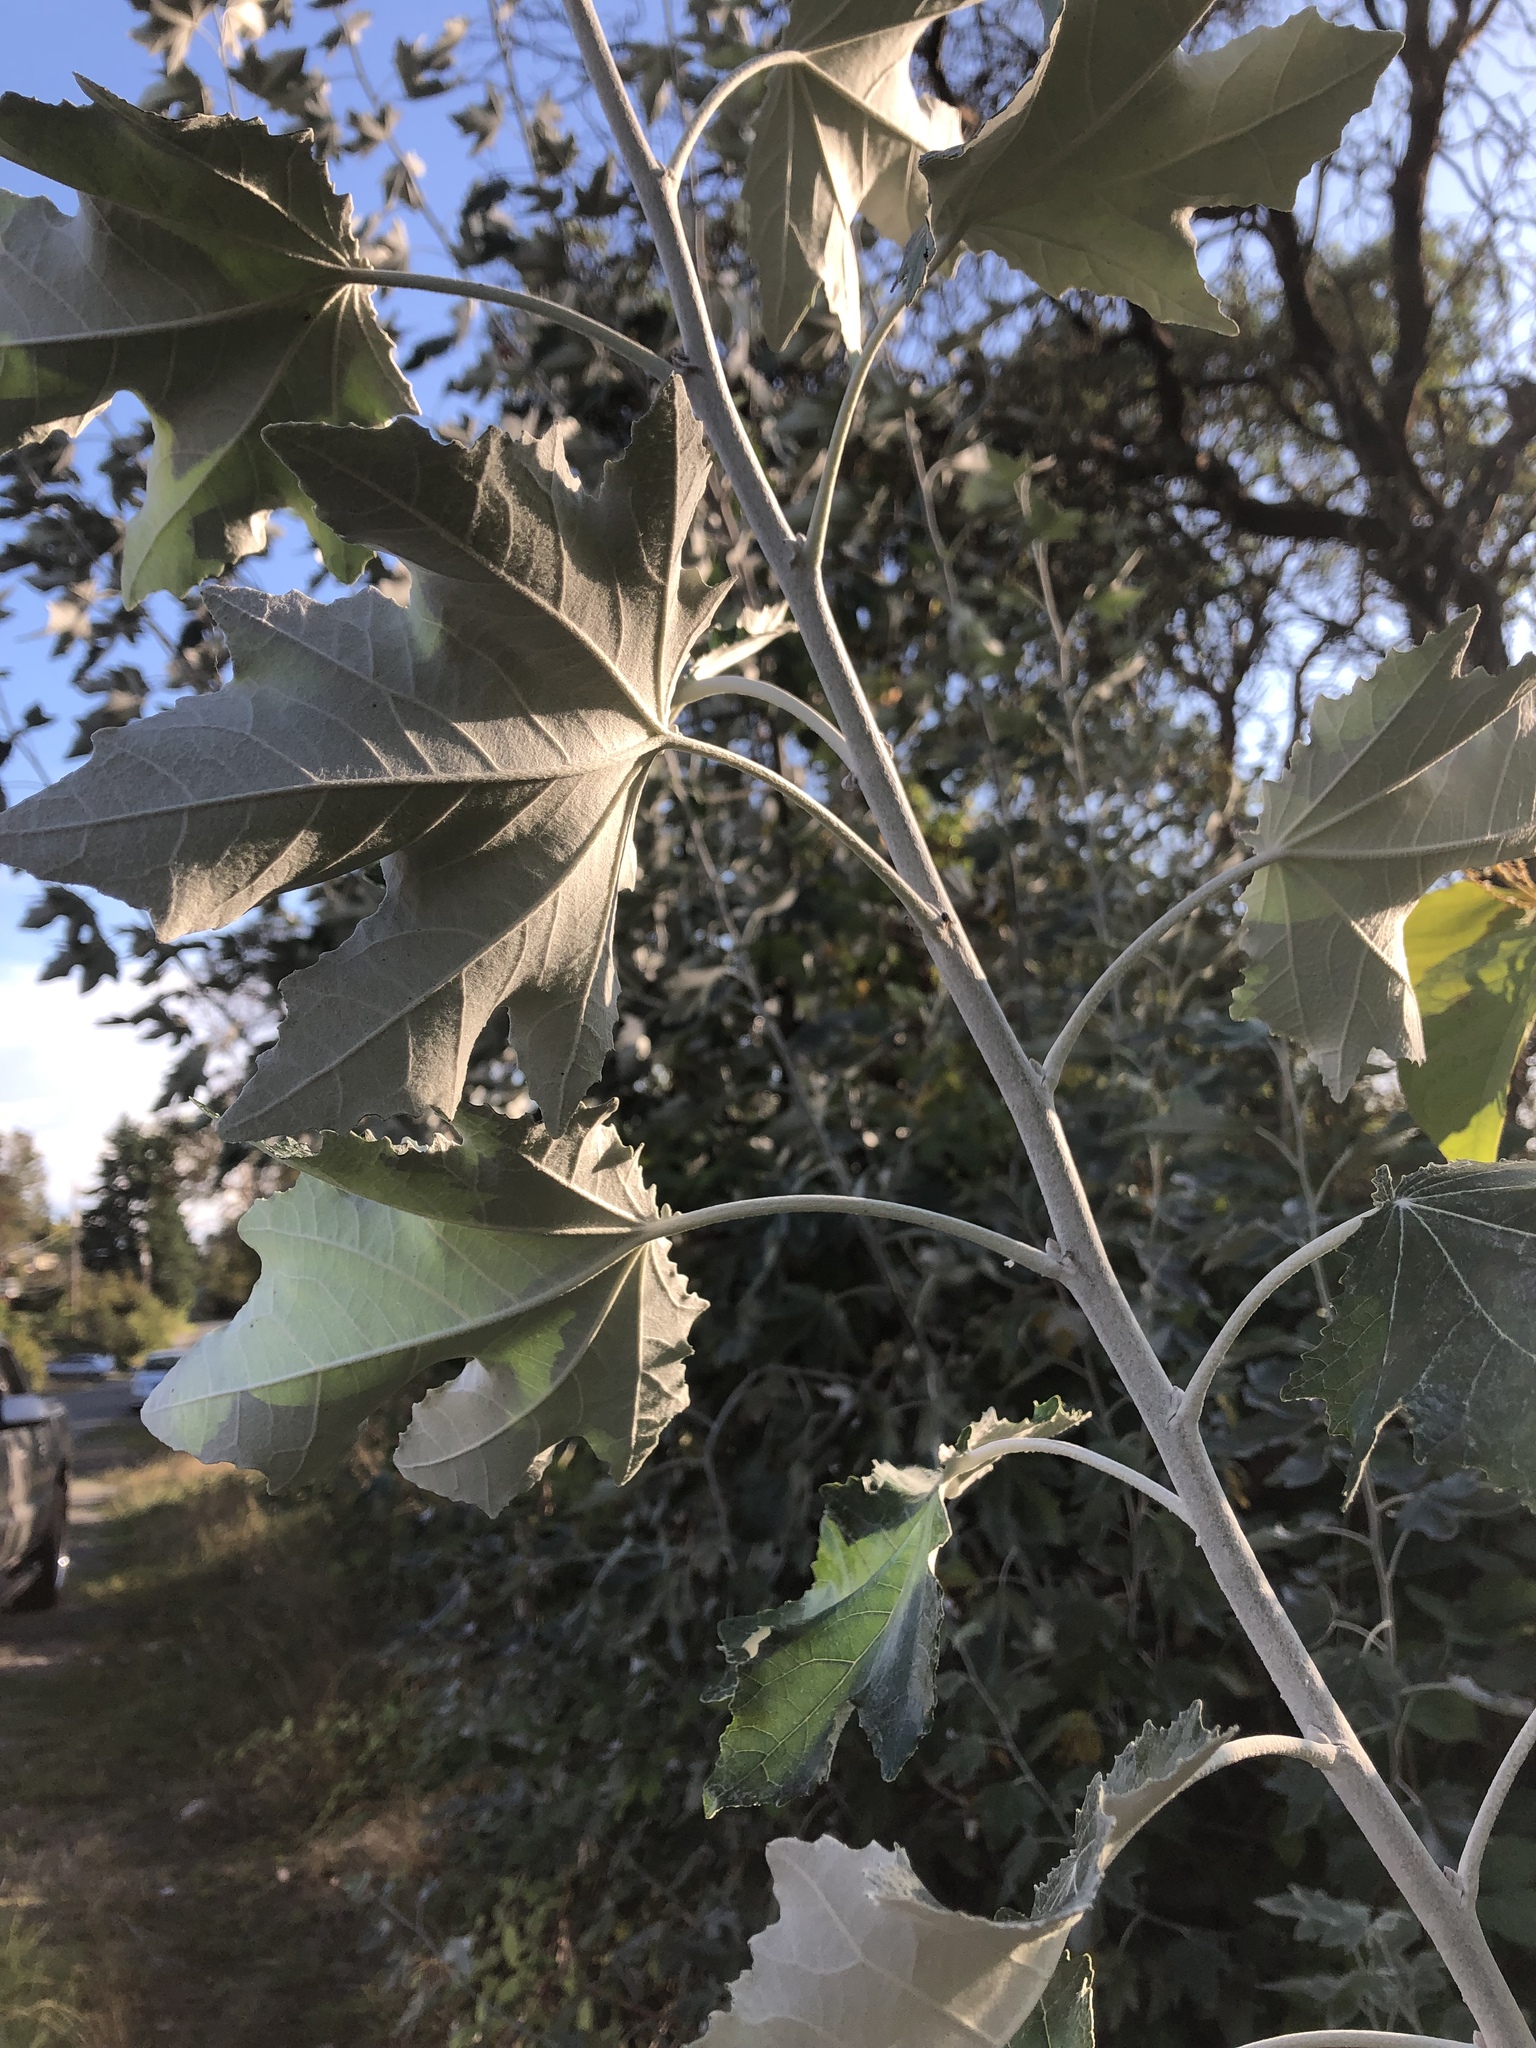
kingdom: Plantae
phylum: Tracheophyta
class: Magnoliopsida
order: Malpighiales
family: Salicaceae
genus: Populus
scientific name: Populus alba
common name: White poplar
